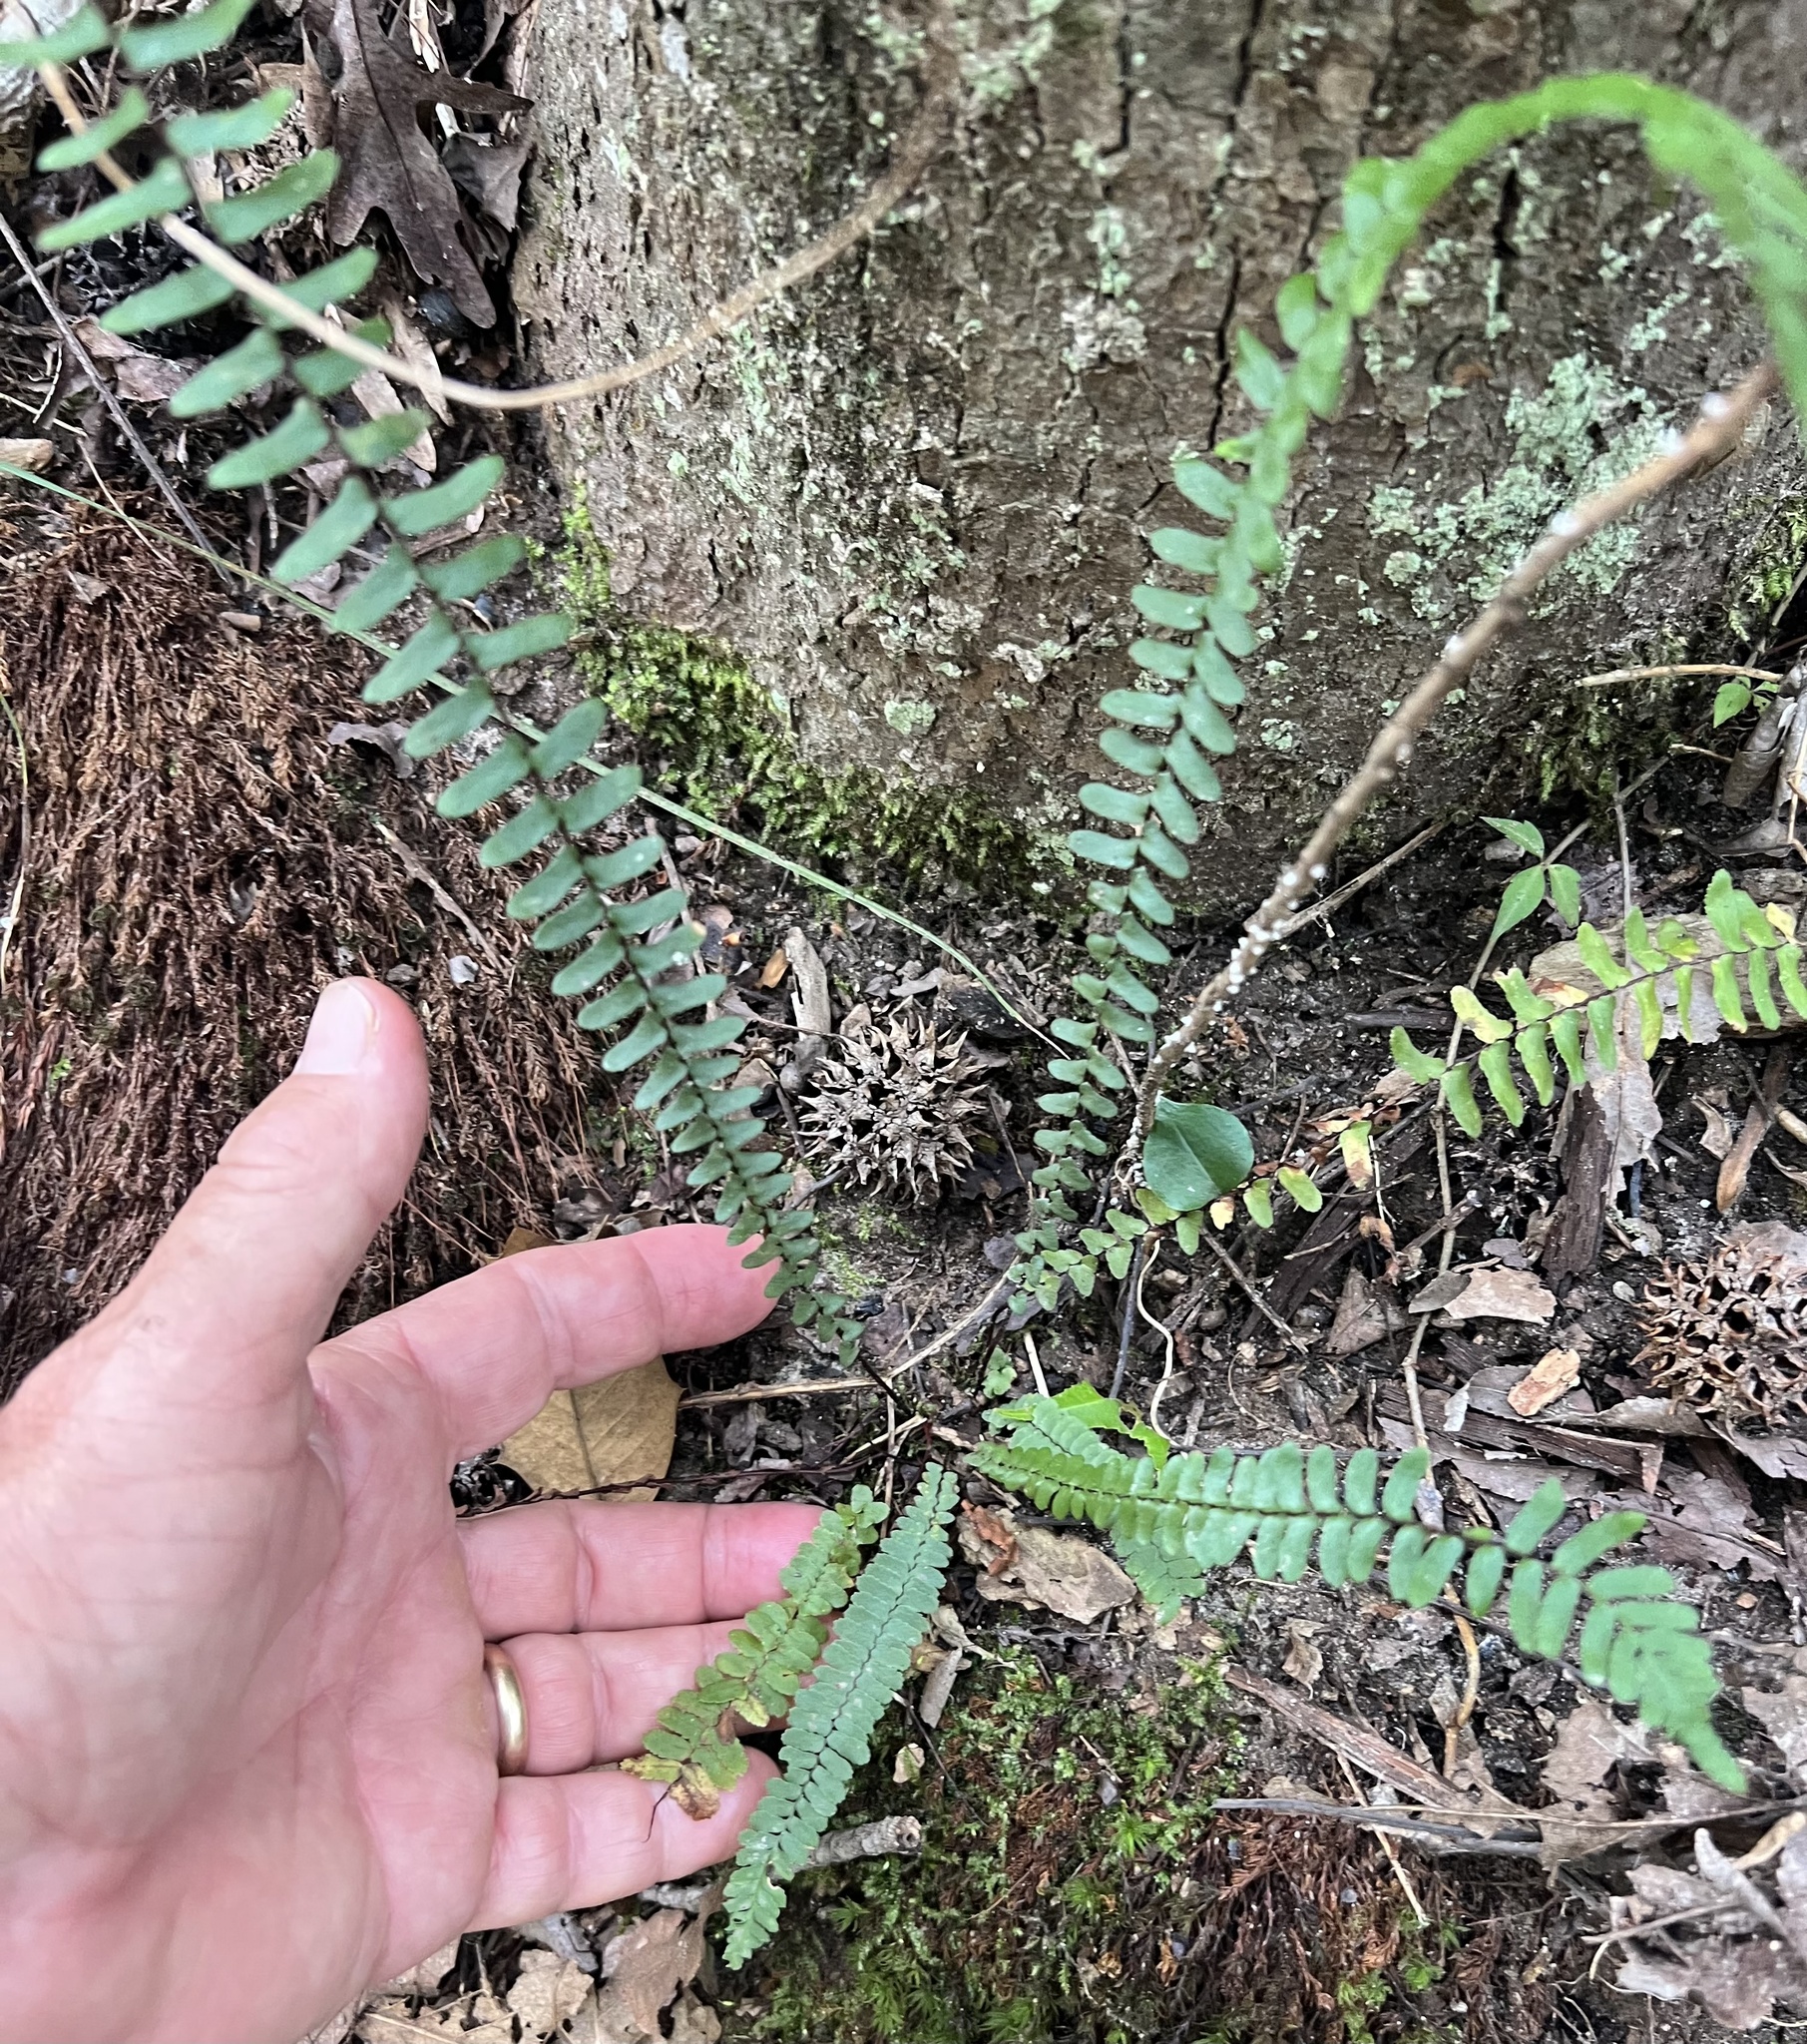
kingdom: Plantae
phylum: Tracheophyta
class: Polypodiopsida
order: Polypodiales
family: Aspleniaceae
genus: Asplenium
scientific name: Asplenium platyneuron
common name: Ebony spleenwort
